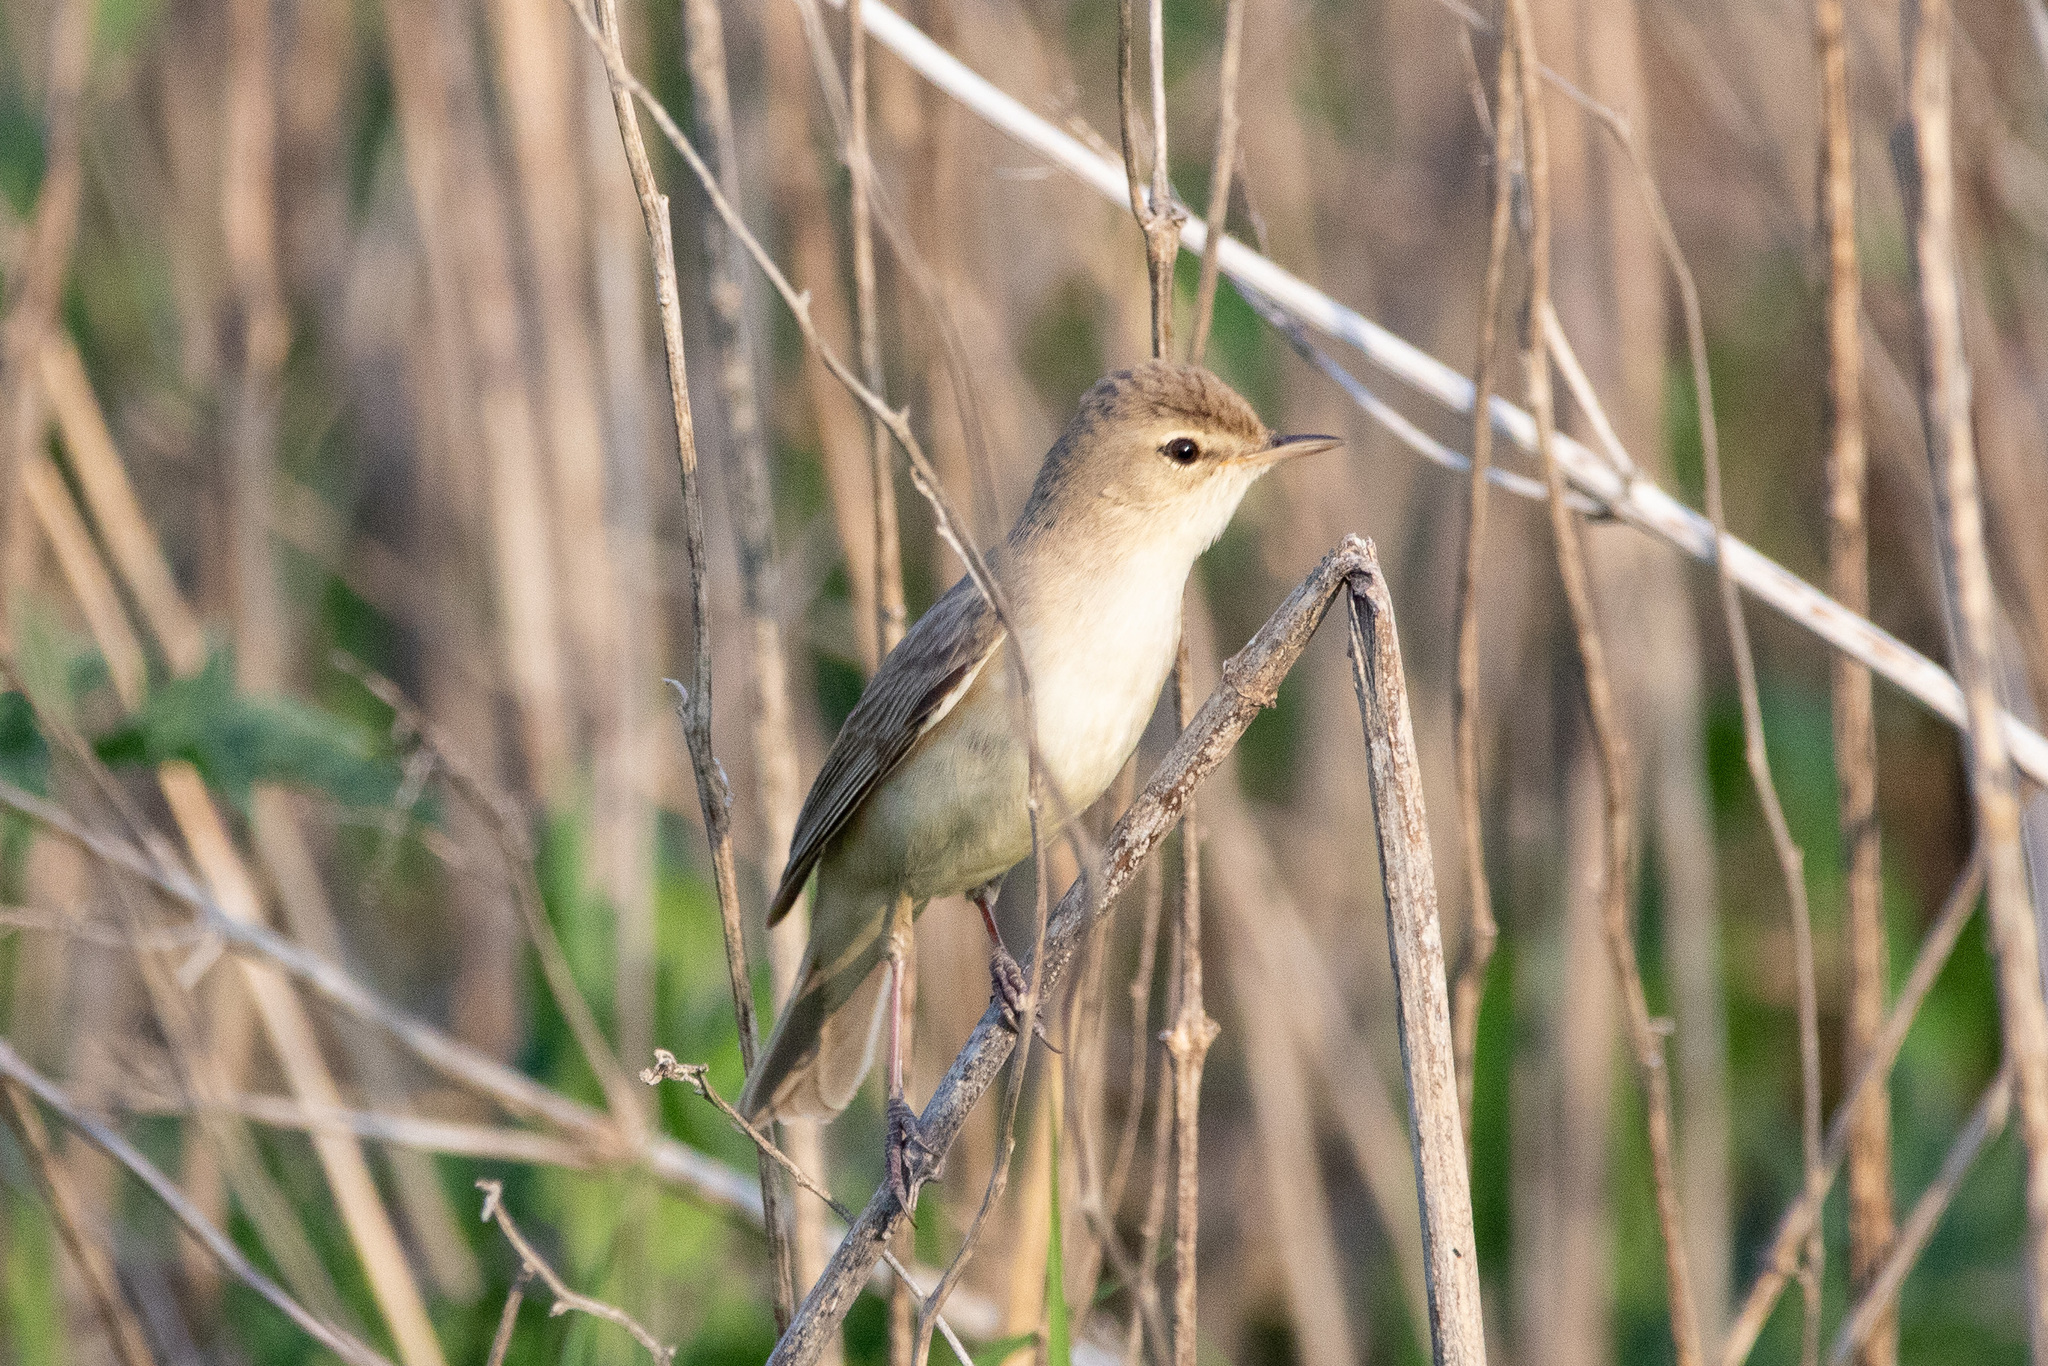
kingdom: Animalia
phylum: Chordata
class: Aves
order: Passeriformes
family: Acrocephalidae
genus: Iduna
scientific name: Iduna caligata
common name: Booted warbler
